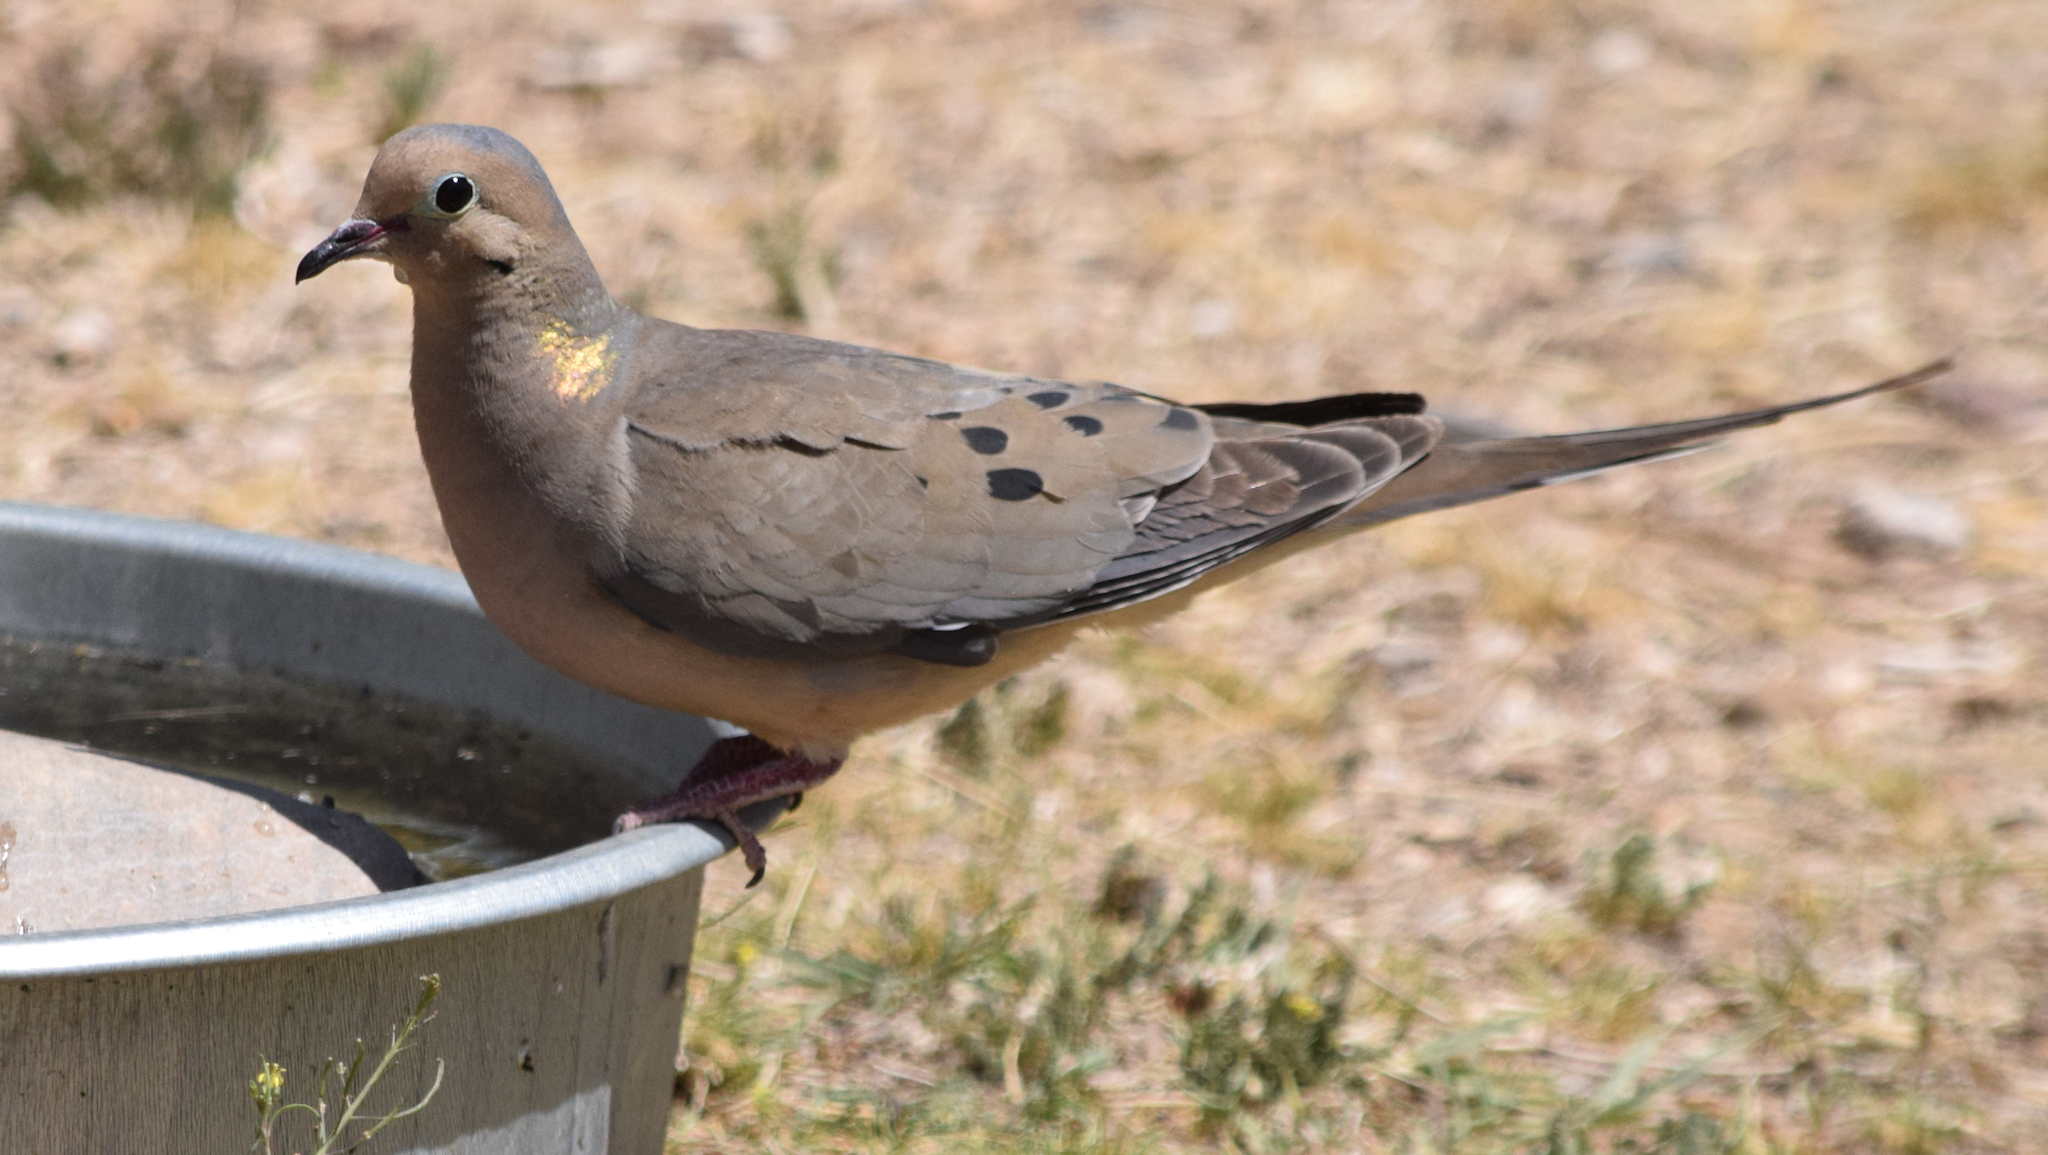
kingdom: Animalia
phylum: Chordata
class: Aves
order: Columbiformes
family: Columbidae
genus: Zenaida
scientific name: Zenaida macroura
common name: Mourning dove
